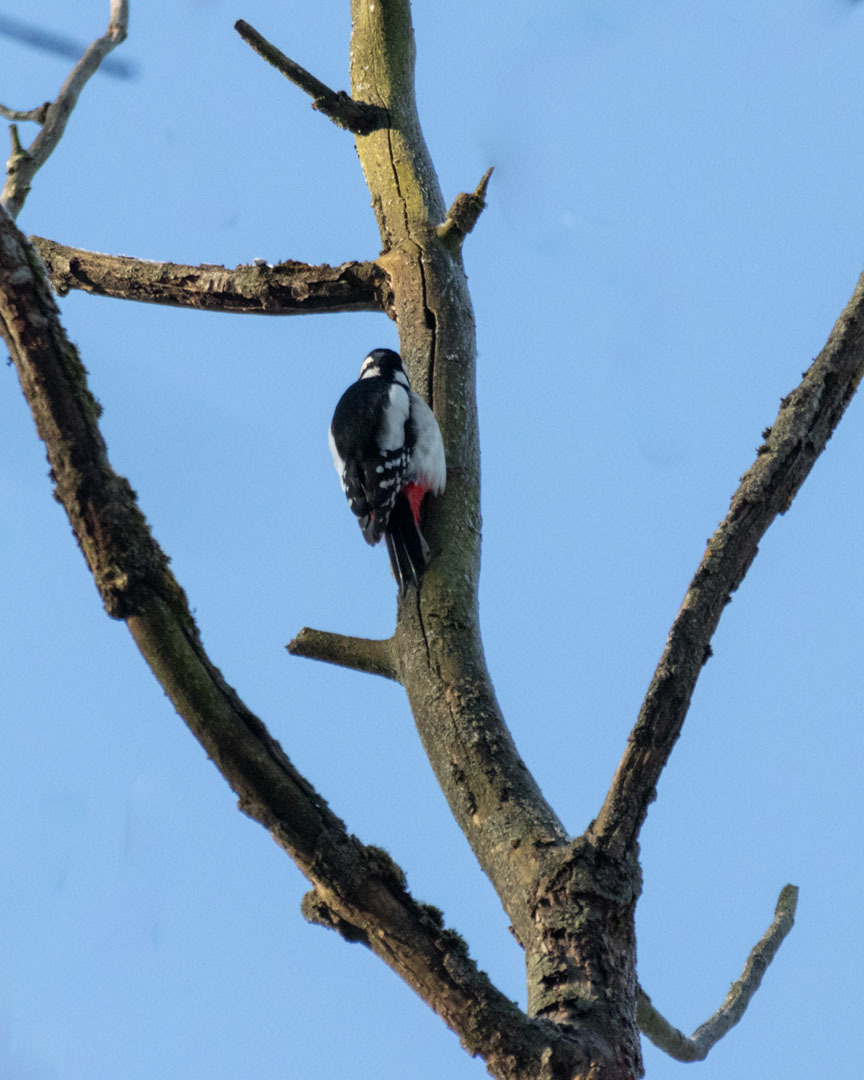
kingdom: Animalia
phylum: Chordata
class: Aves
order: Piciformes
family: Picidae
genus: Dendrocopos
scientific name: Dendrocopos major
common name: Great spotted woodpecker
